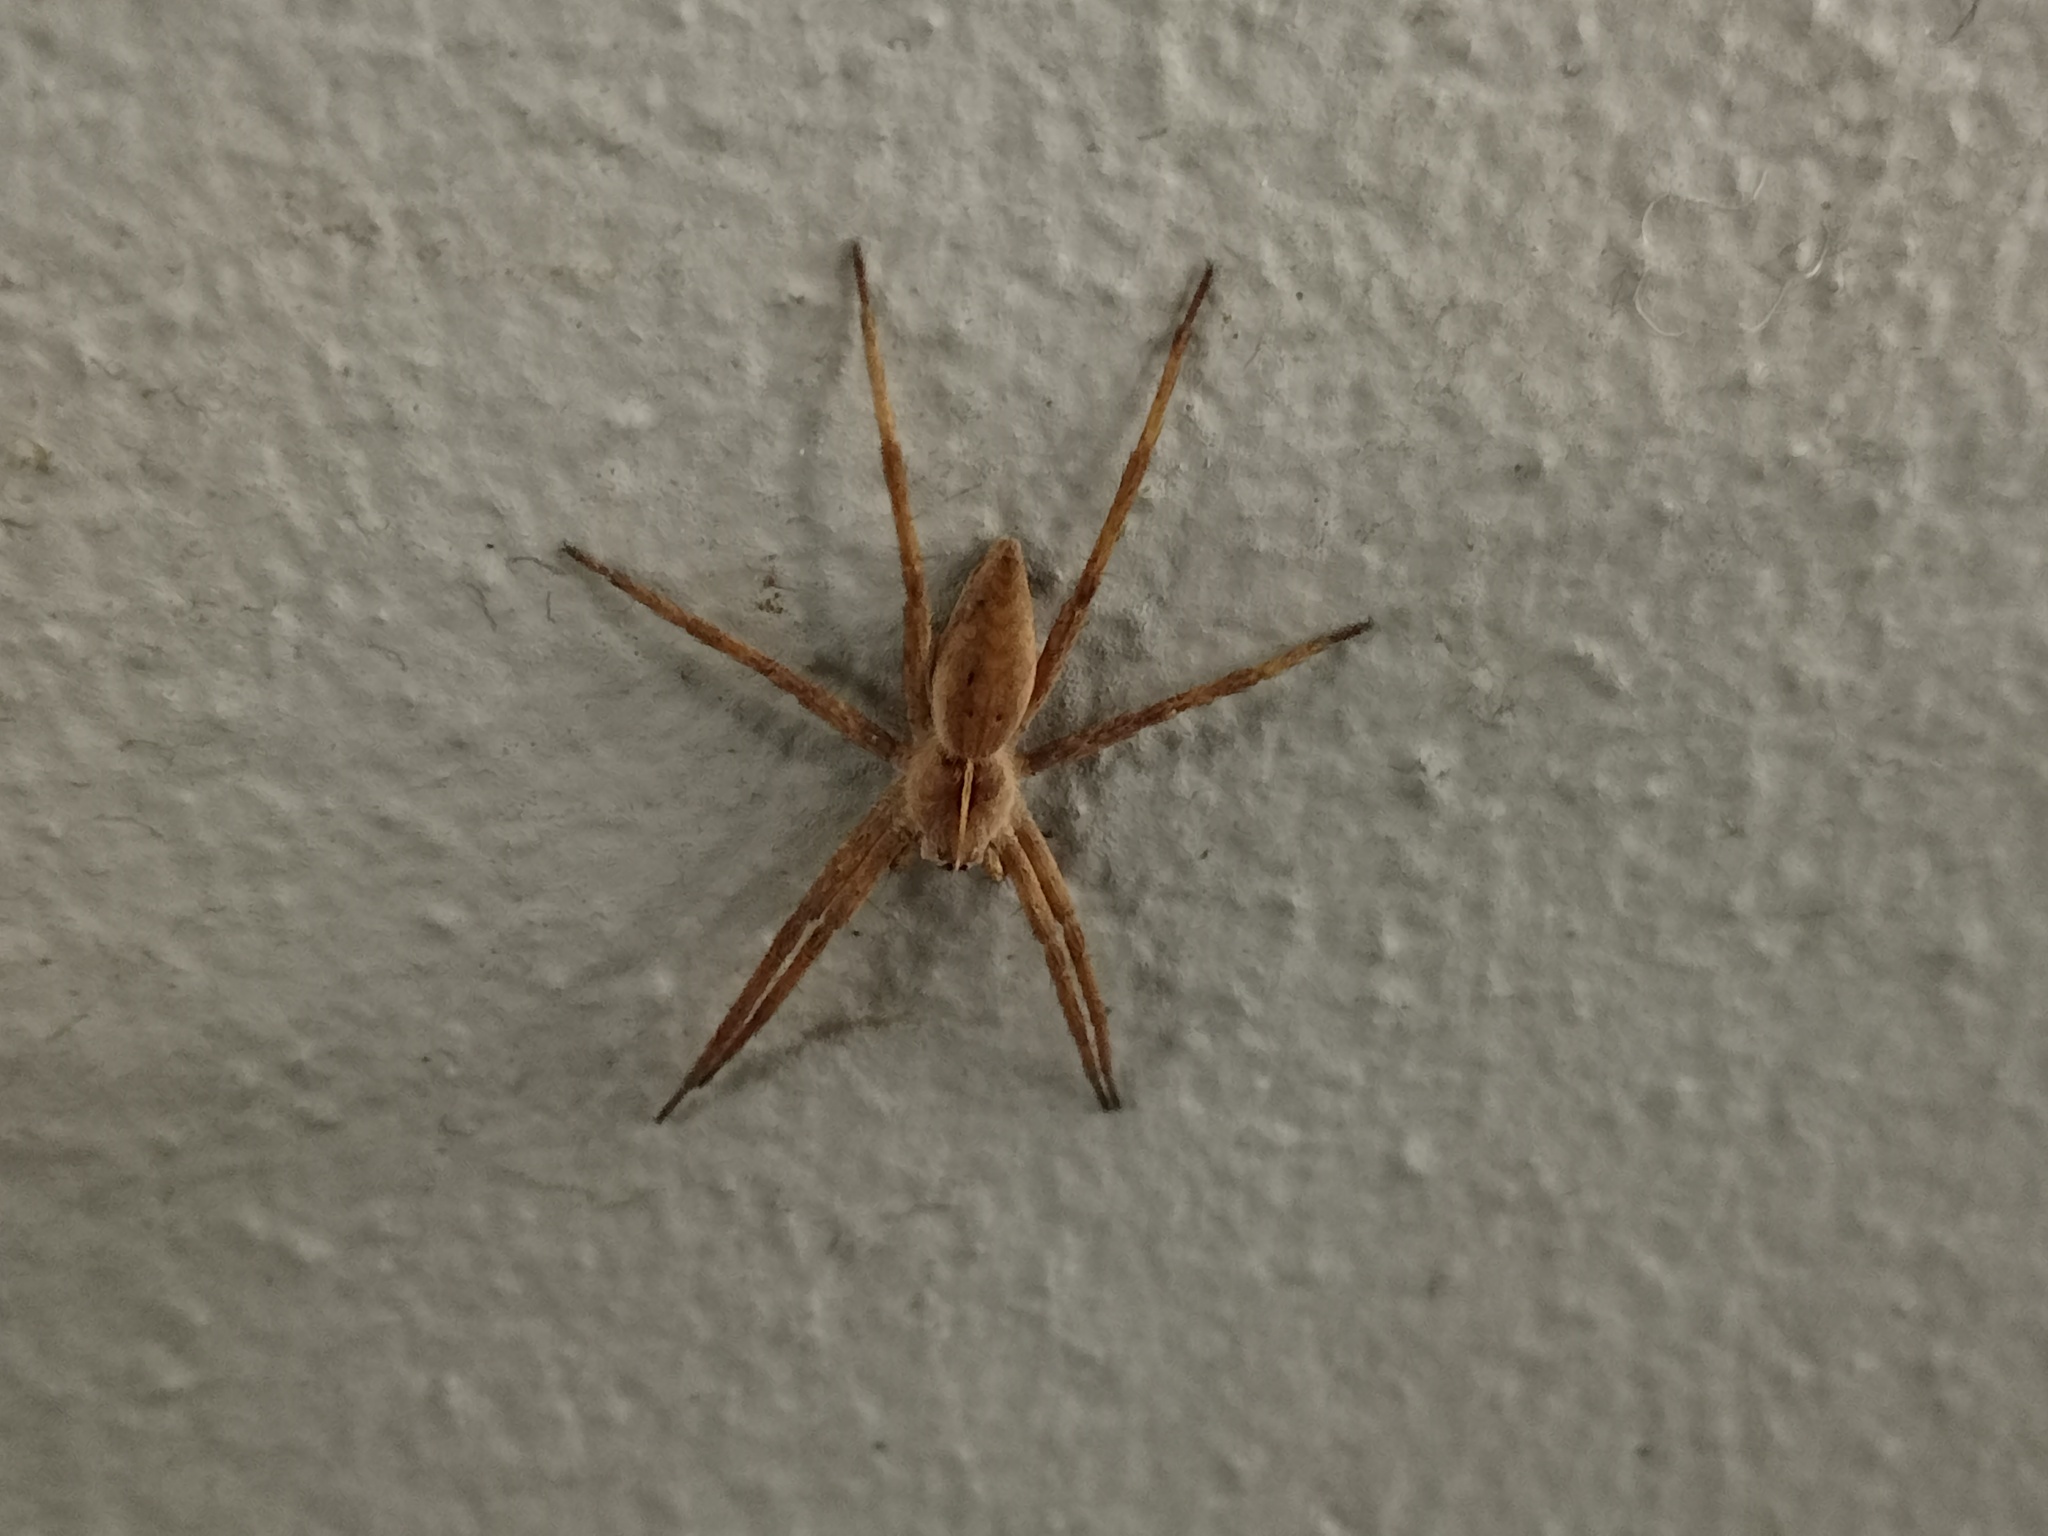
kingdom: Animalia
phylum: Arthropoda
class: Arachnida
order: Araneae
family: Pisauridae
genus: Pisaura
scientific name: Pisaura mirabilis
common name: Tent spider
